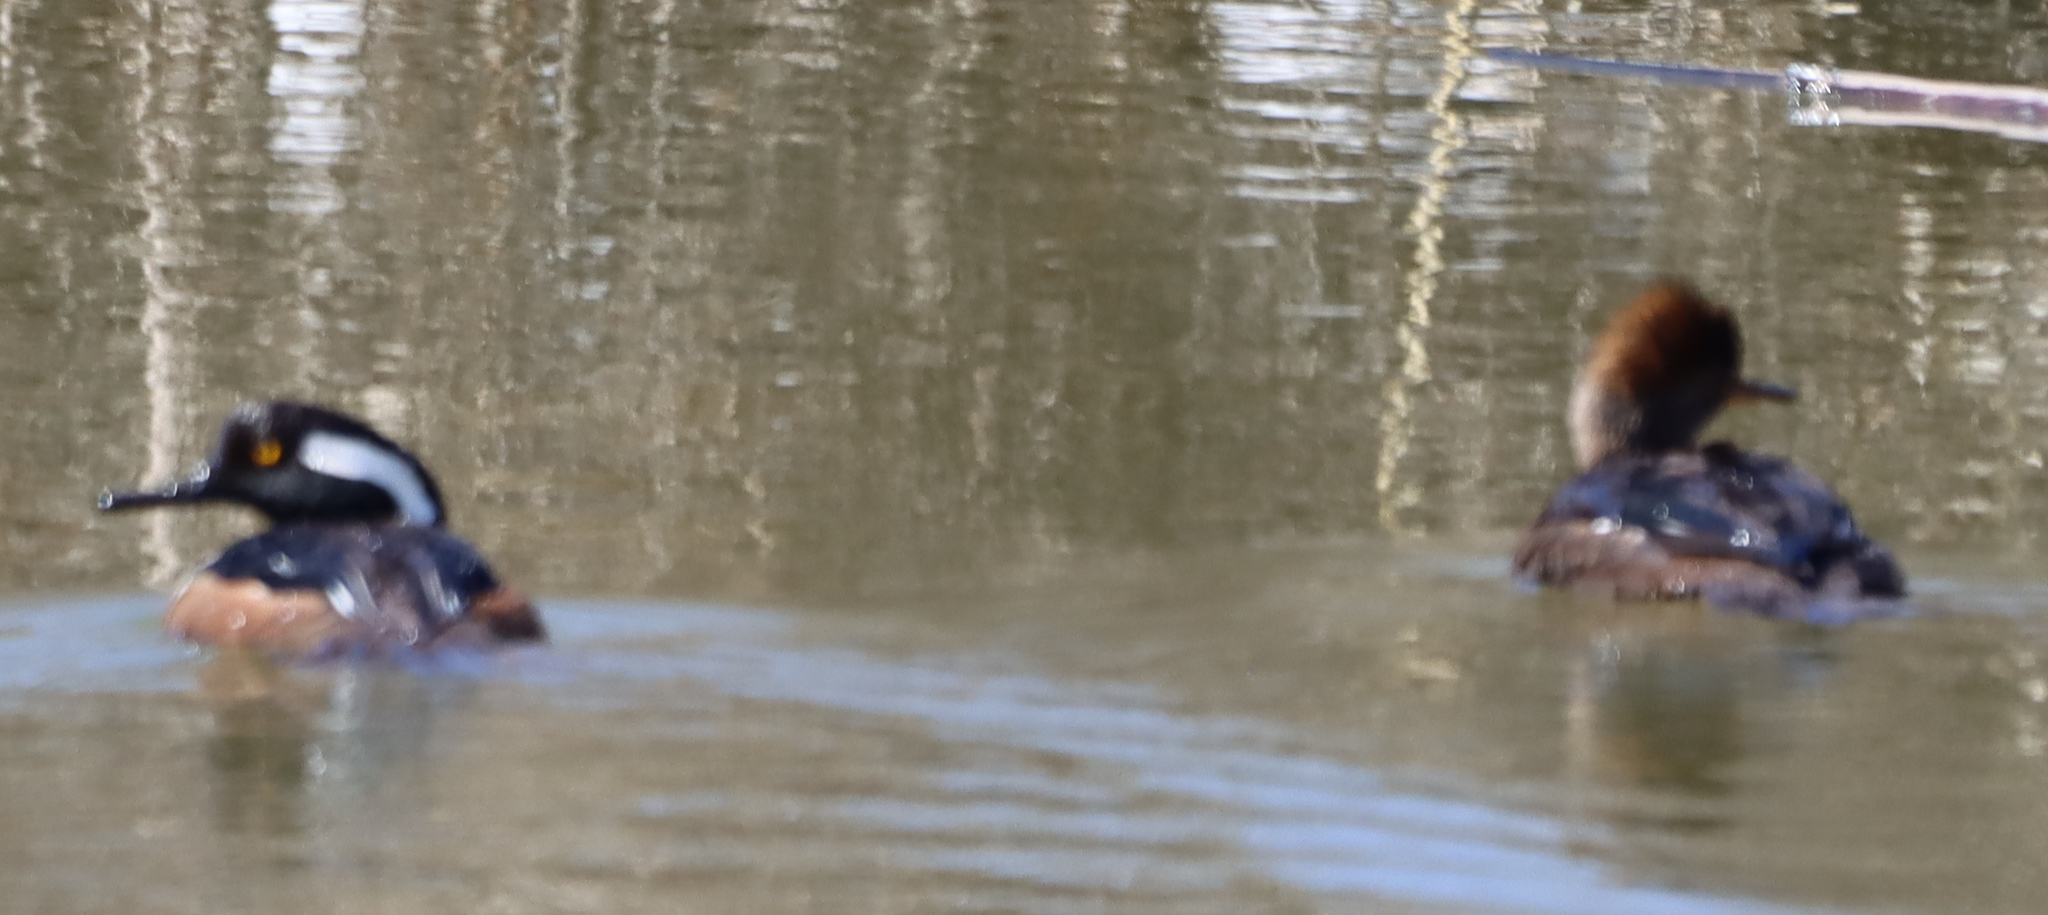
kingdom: Animalia
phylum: Chordata
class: Aves
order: Anseriformes
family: Anatidae
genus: Lophodytes
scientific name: Lophodytes cucullatus
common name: Hooded merganser
